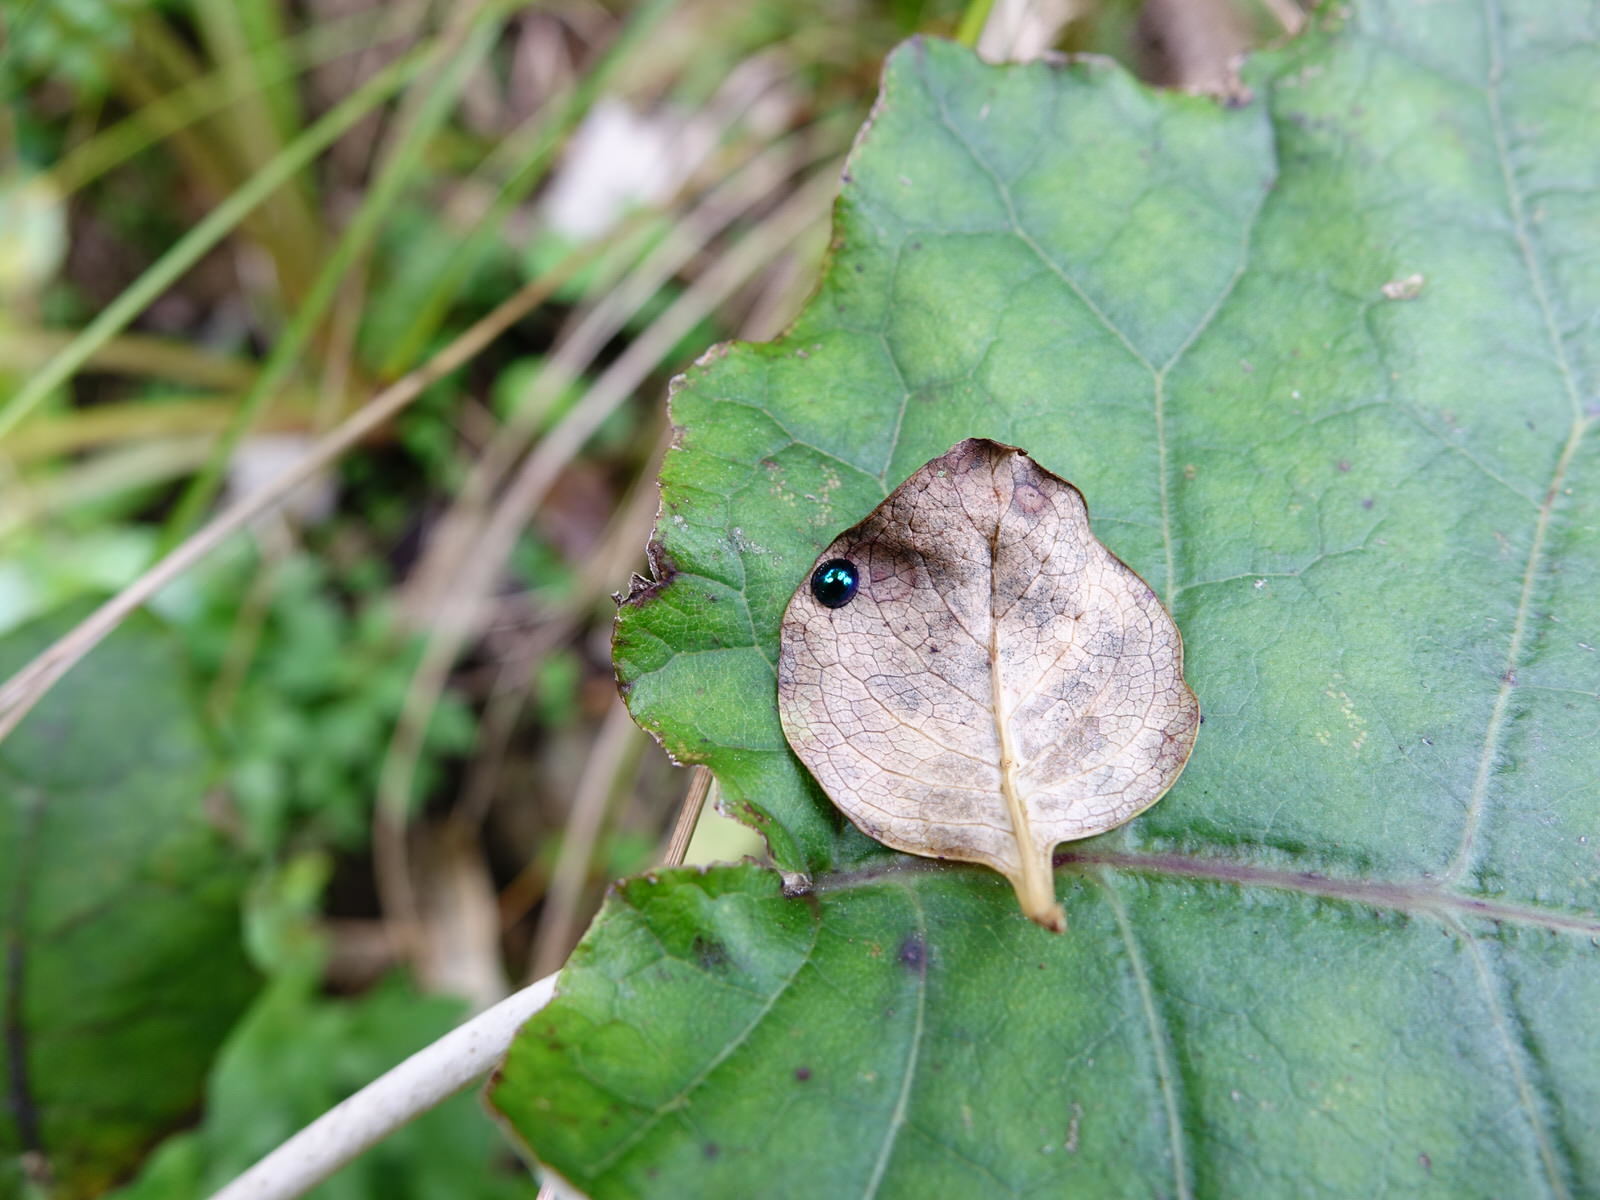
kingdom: Animalia
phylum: Arthropoda
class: Insecta
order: Coleoptera
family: Coccinellidae
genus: Halmus
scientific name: Halmus chalybeus
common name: Steel blue ladybird beetle
